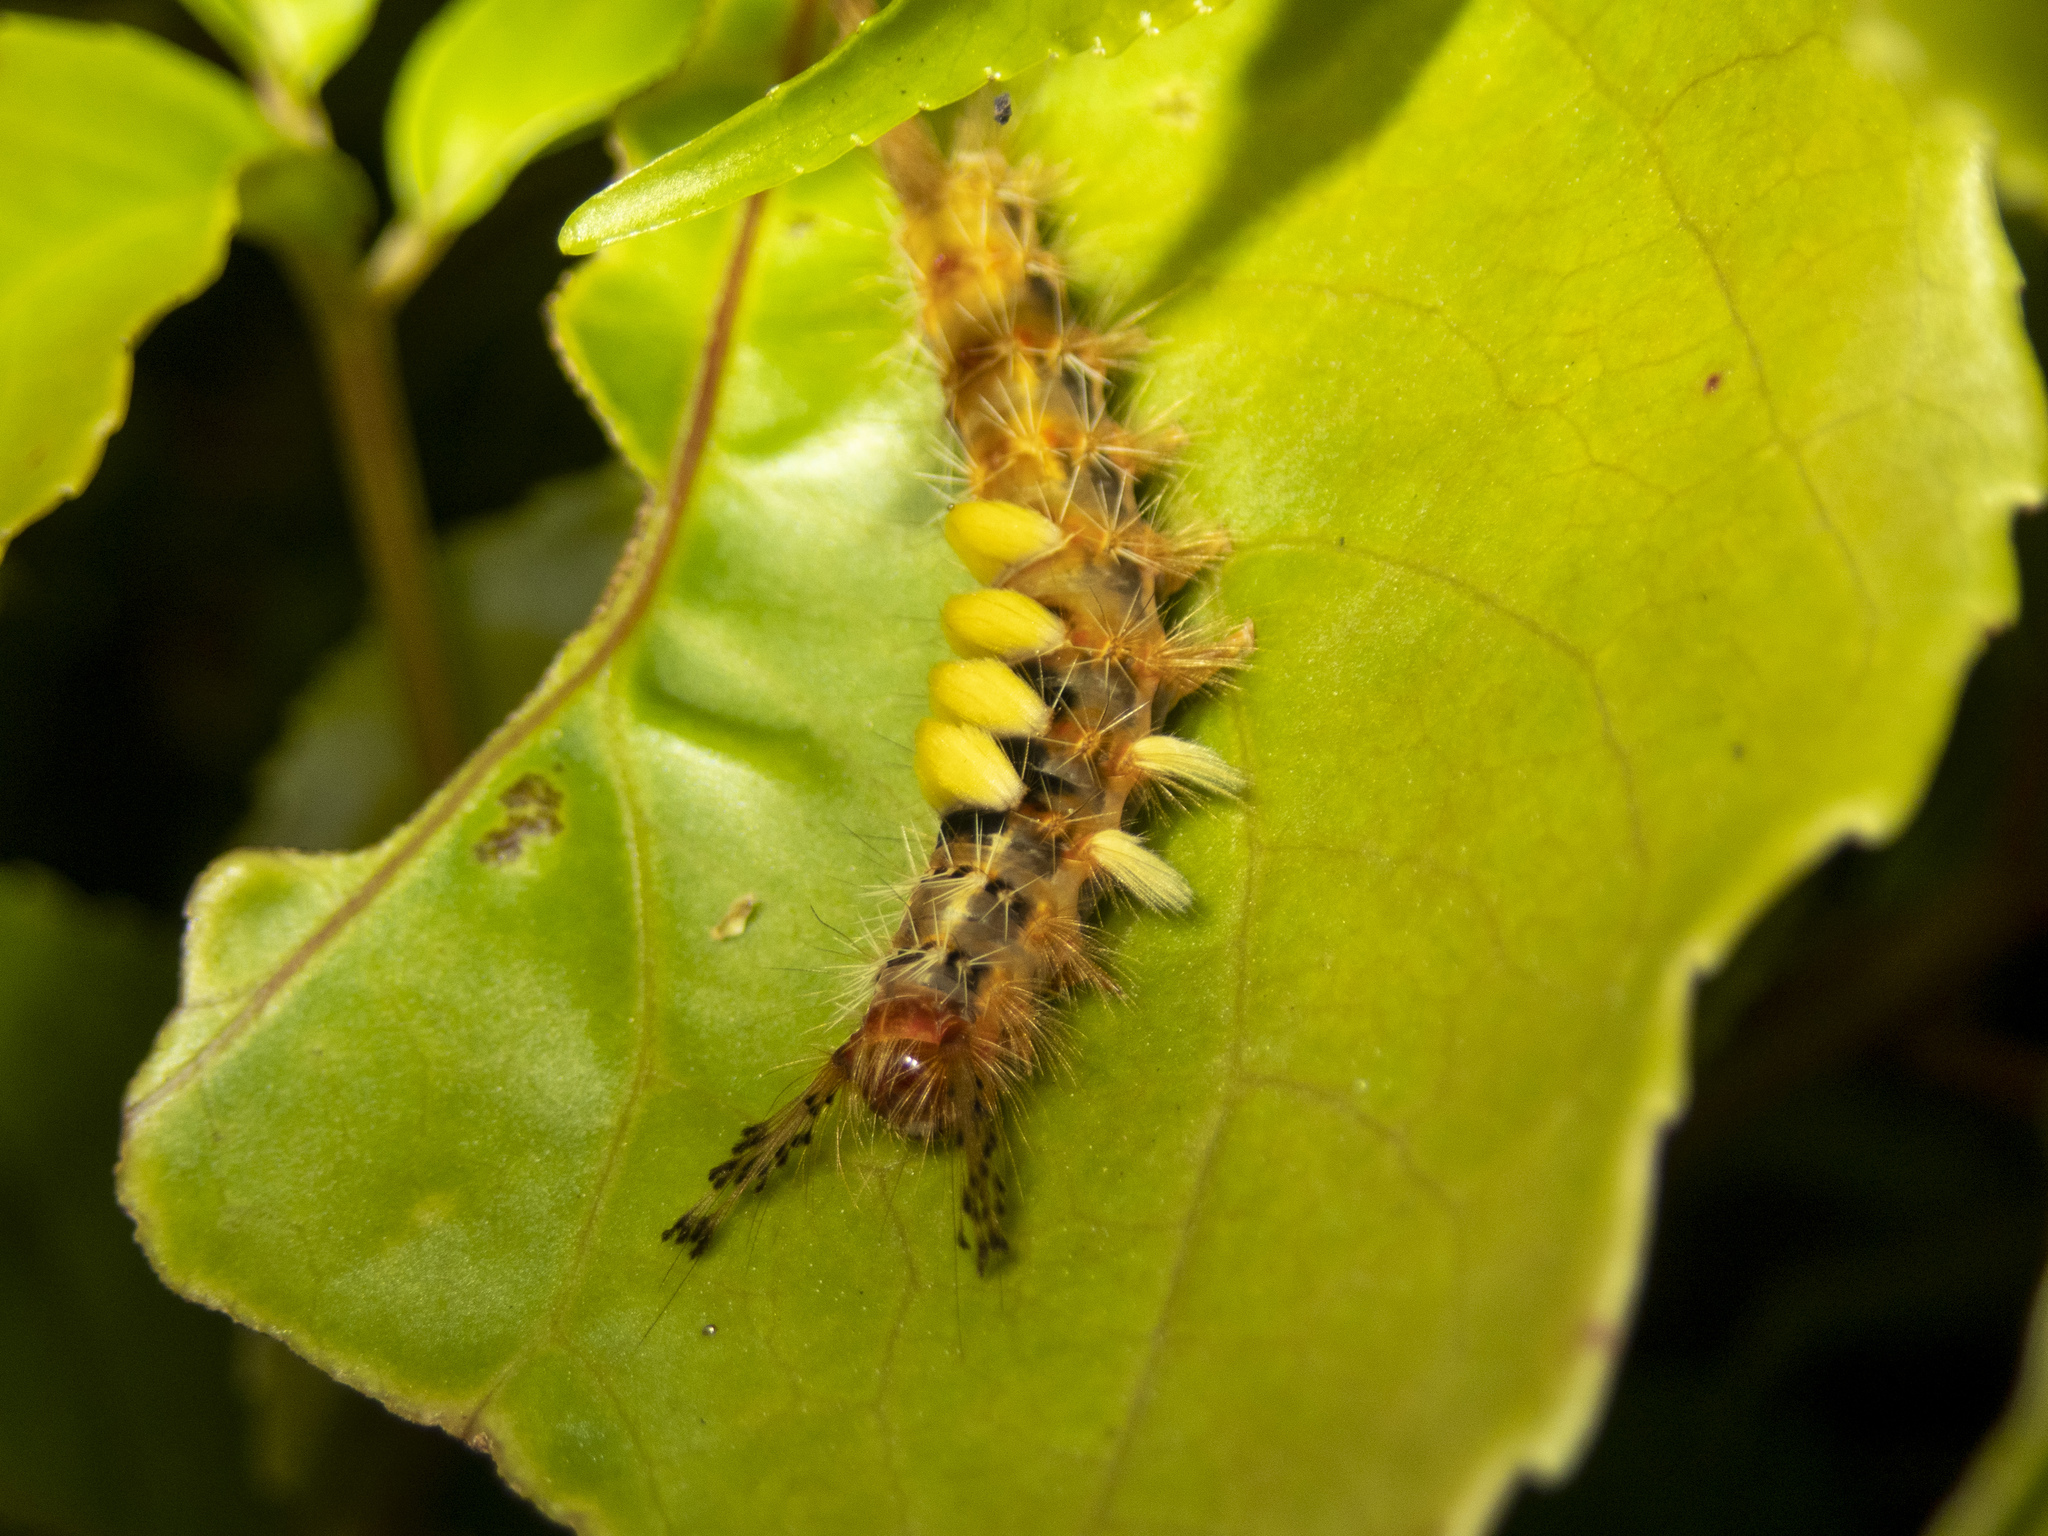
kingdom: Animalia
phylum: Arthropoda
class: Insecta
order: Lepidoptera
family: Erebidae
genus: Orgyia
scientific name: Orgyia postica
